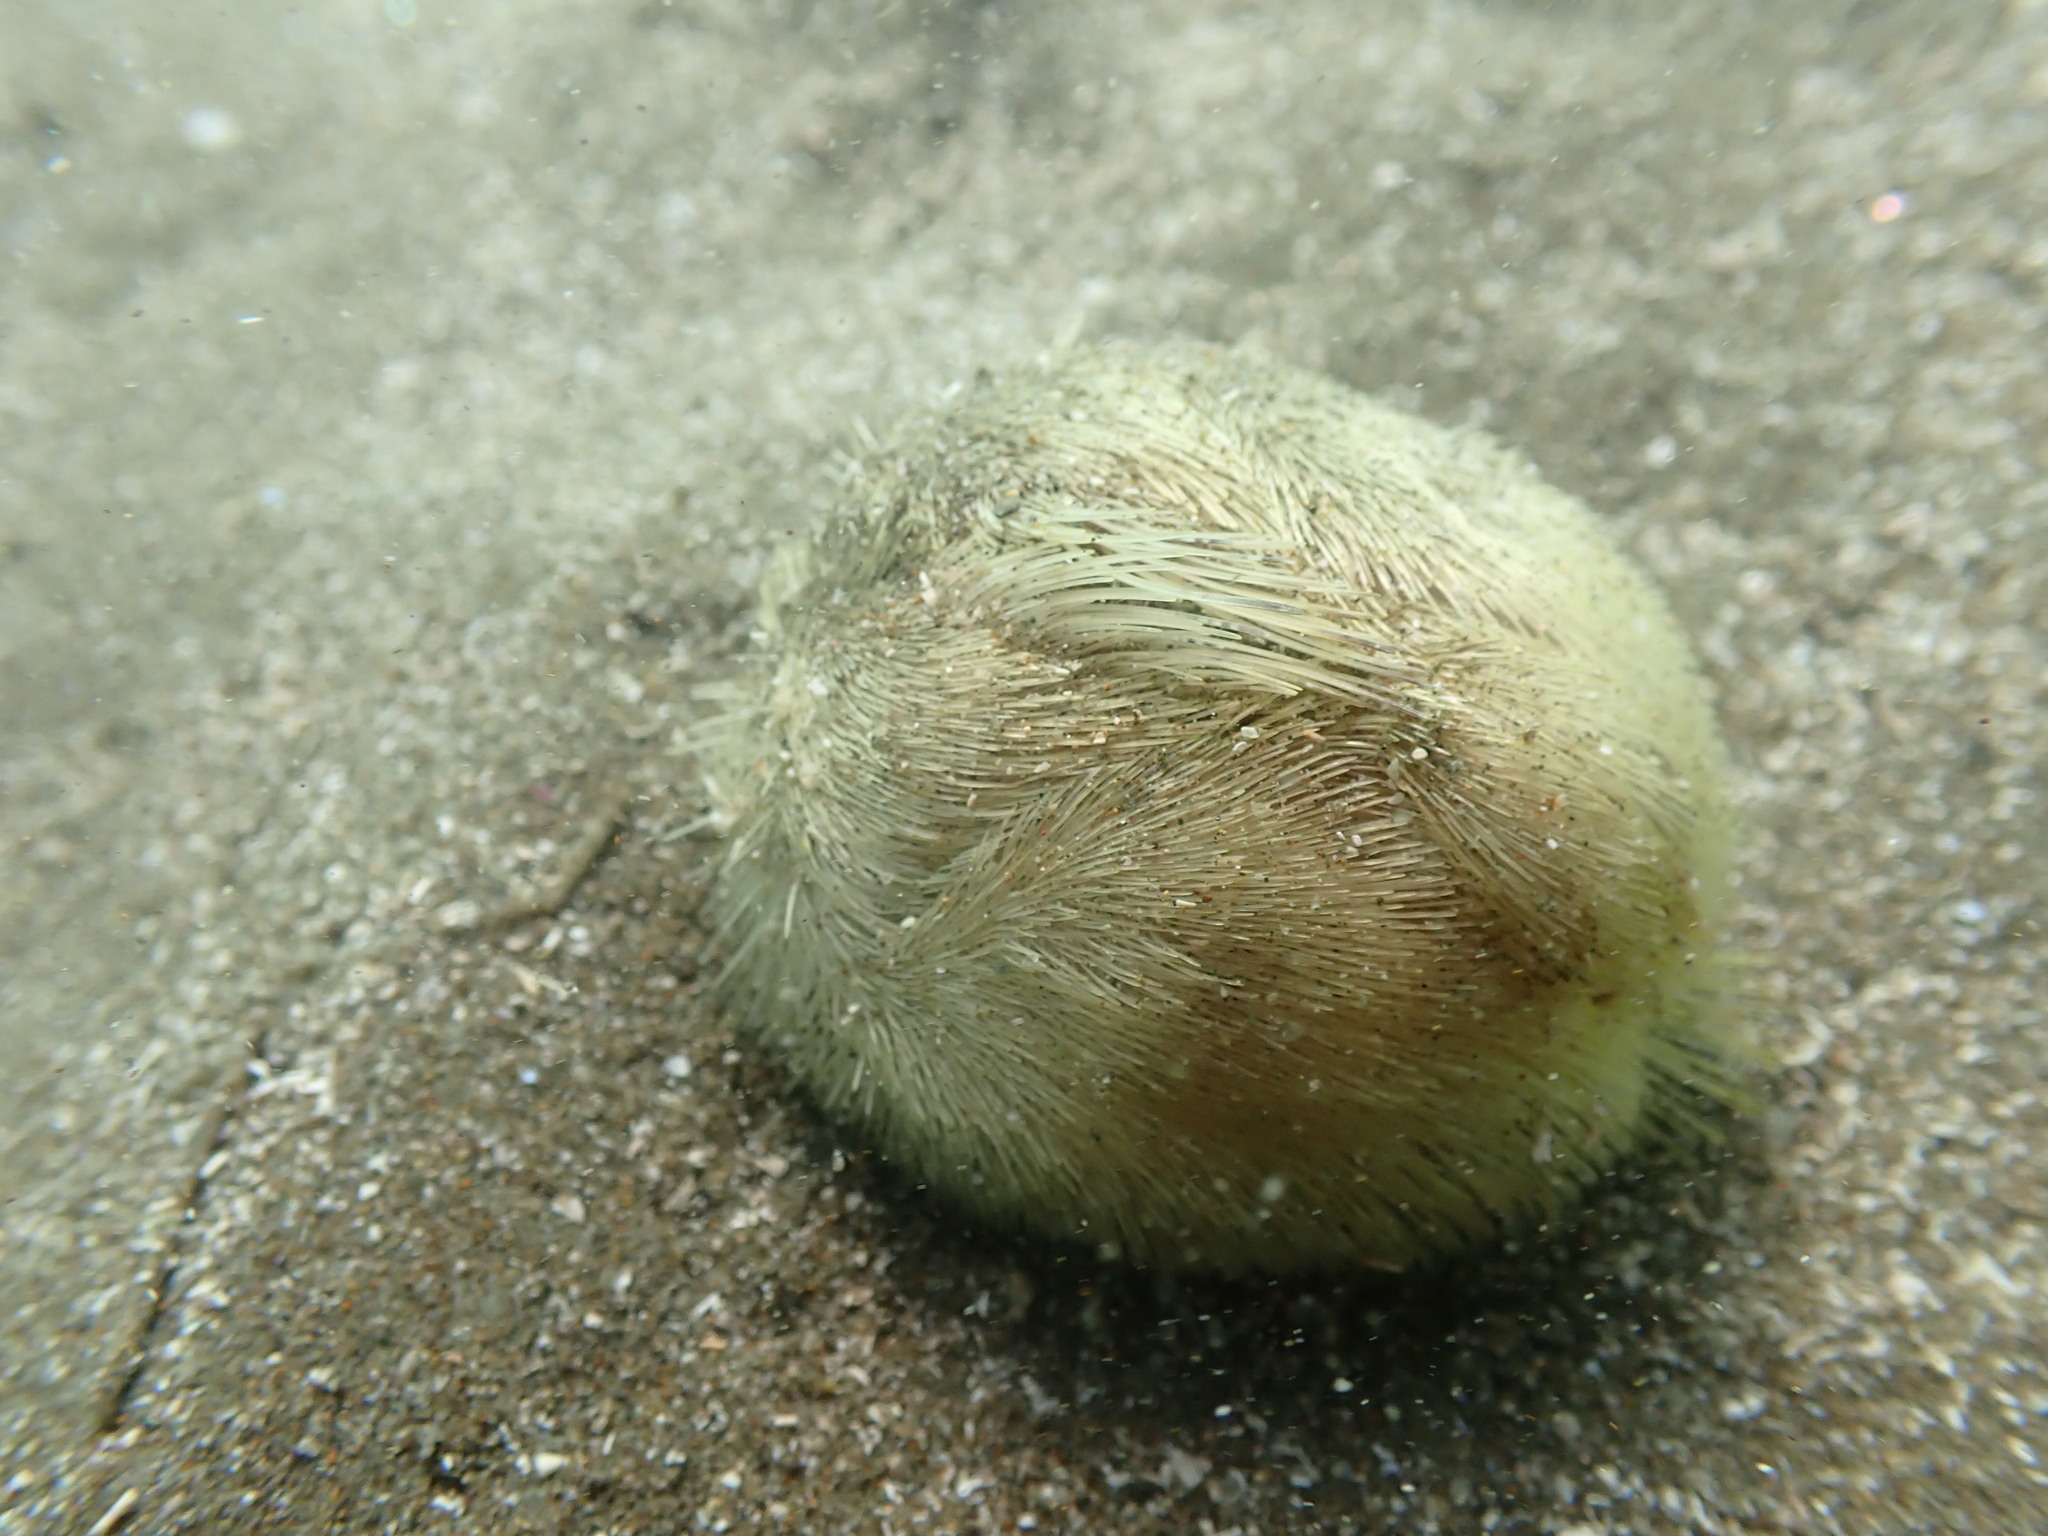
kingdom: Animalia
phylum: Echinodermata
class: Echinoidea
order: Spatangoida
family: Loveniidae
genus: Echinocardium
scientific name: Echinocardium cordatum
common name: Heart-urchin
